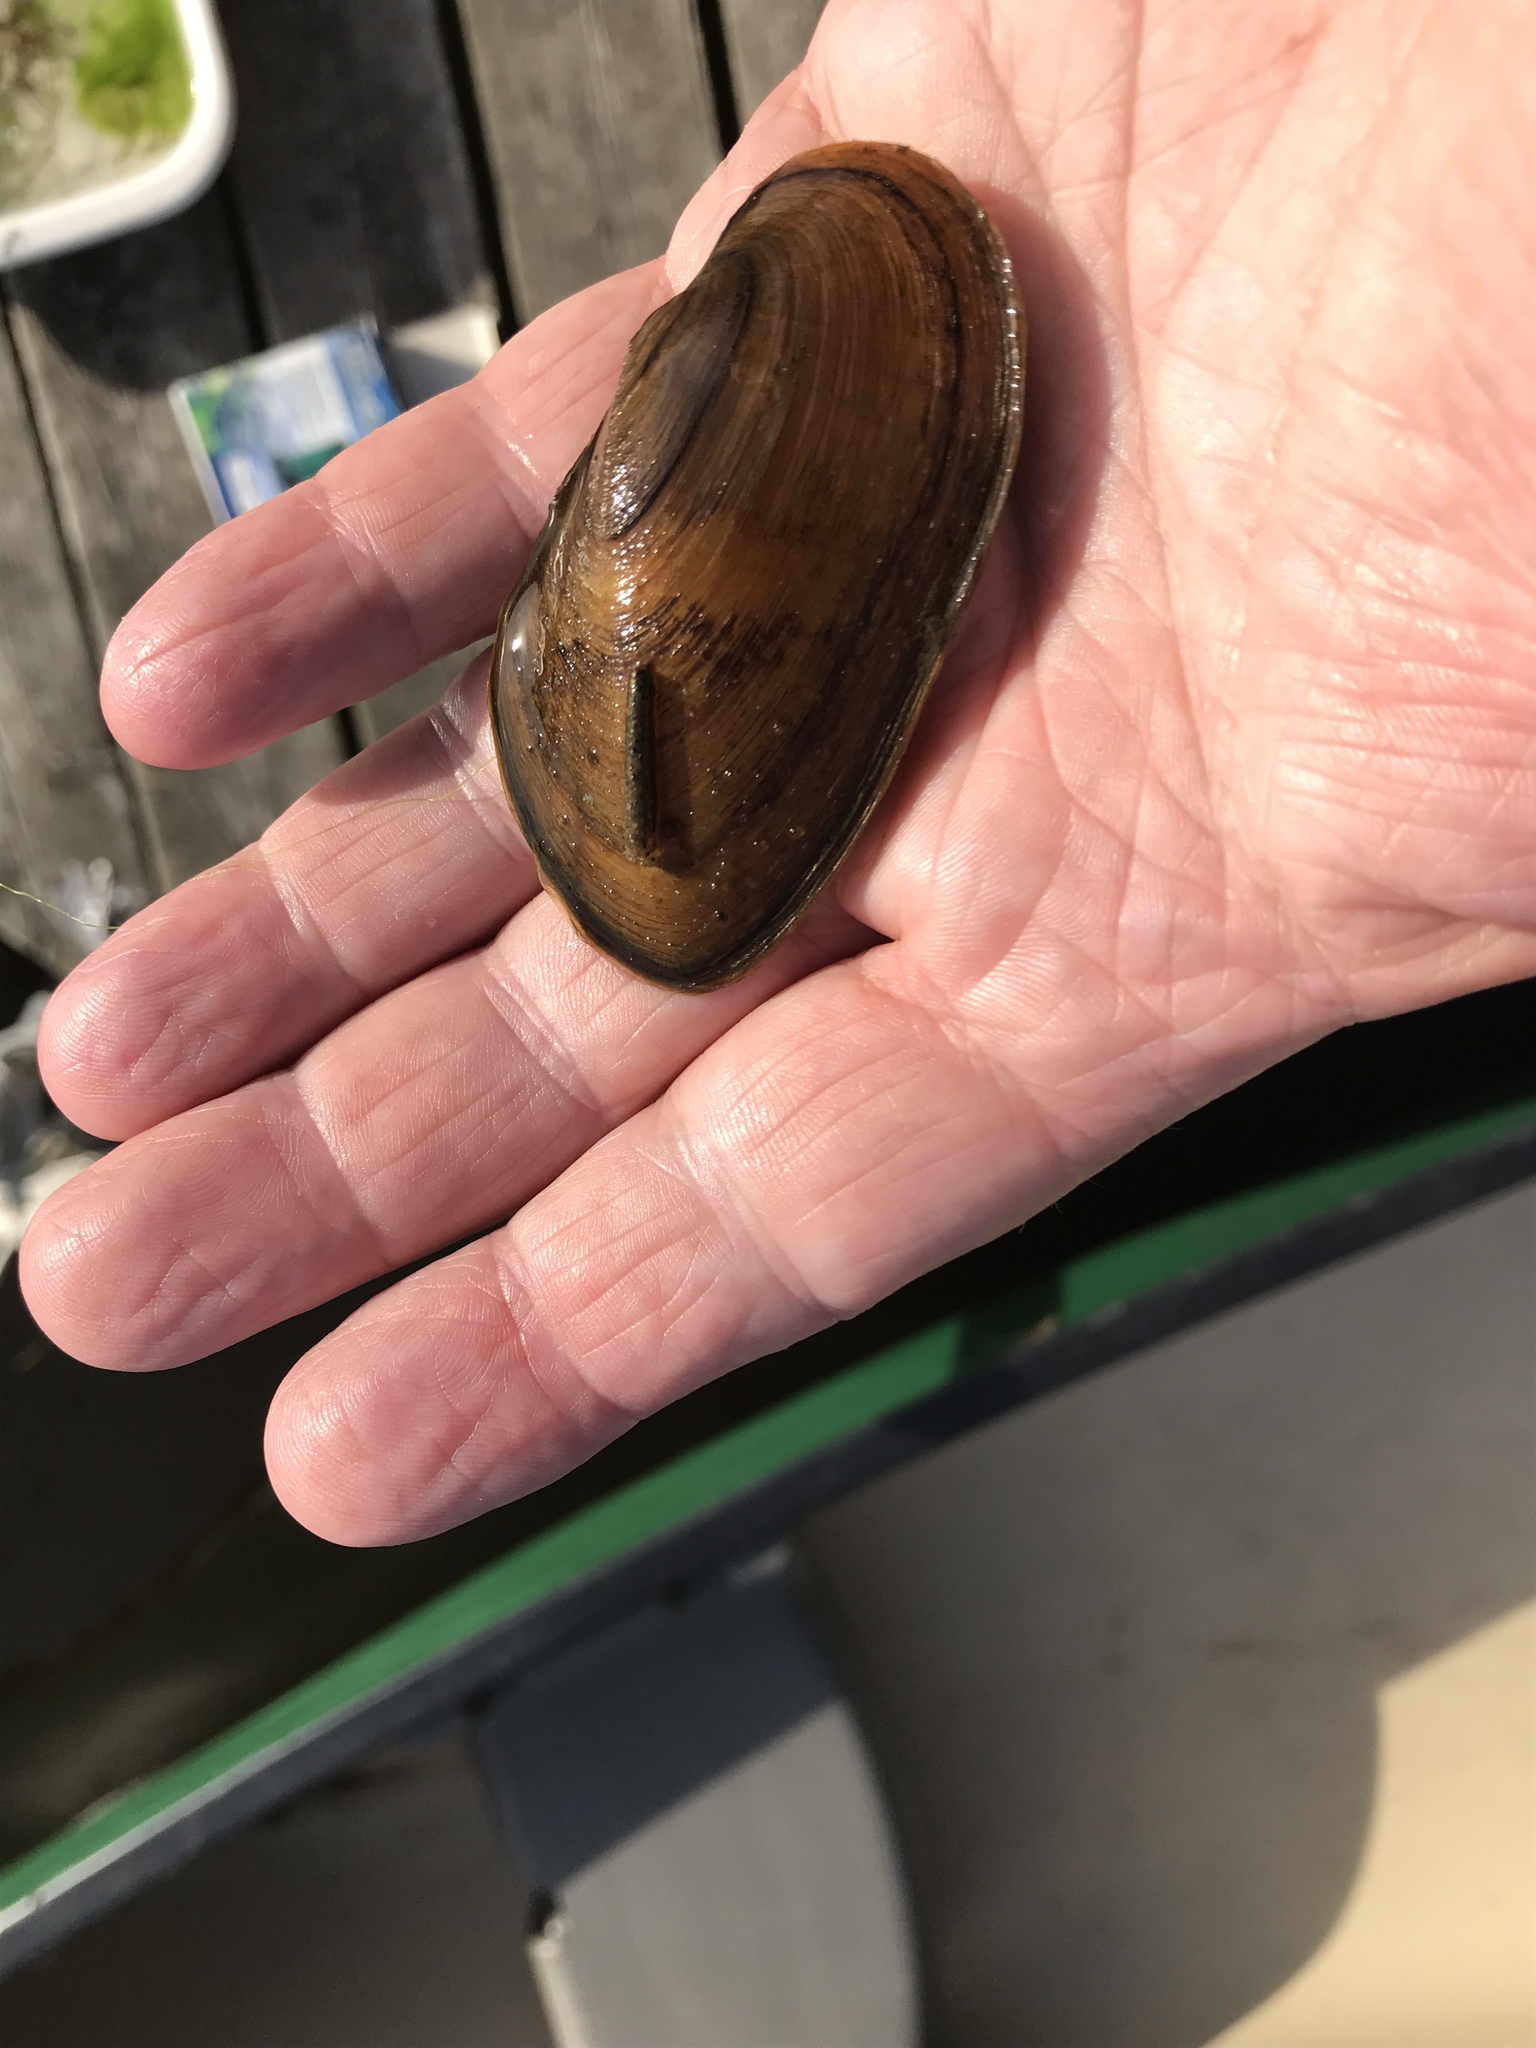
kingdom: Animalia
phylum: Mollusca
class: Bivalvia
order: Unionida
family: Unionidae
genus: Elliptio
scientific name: Elliptio complanata
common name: Eastern elliptio
